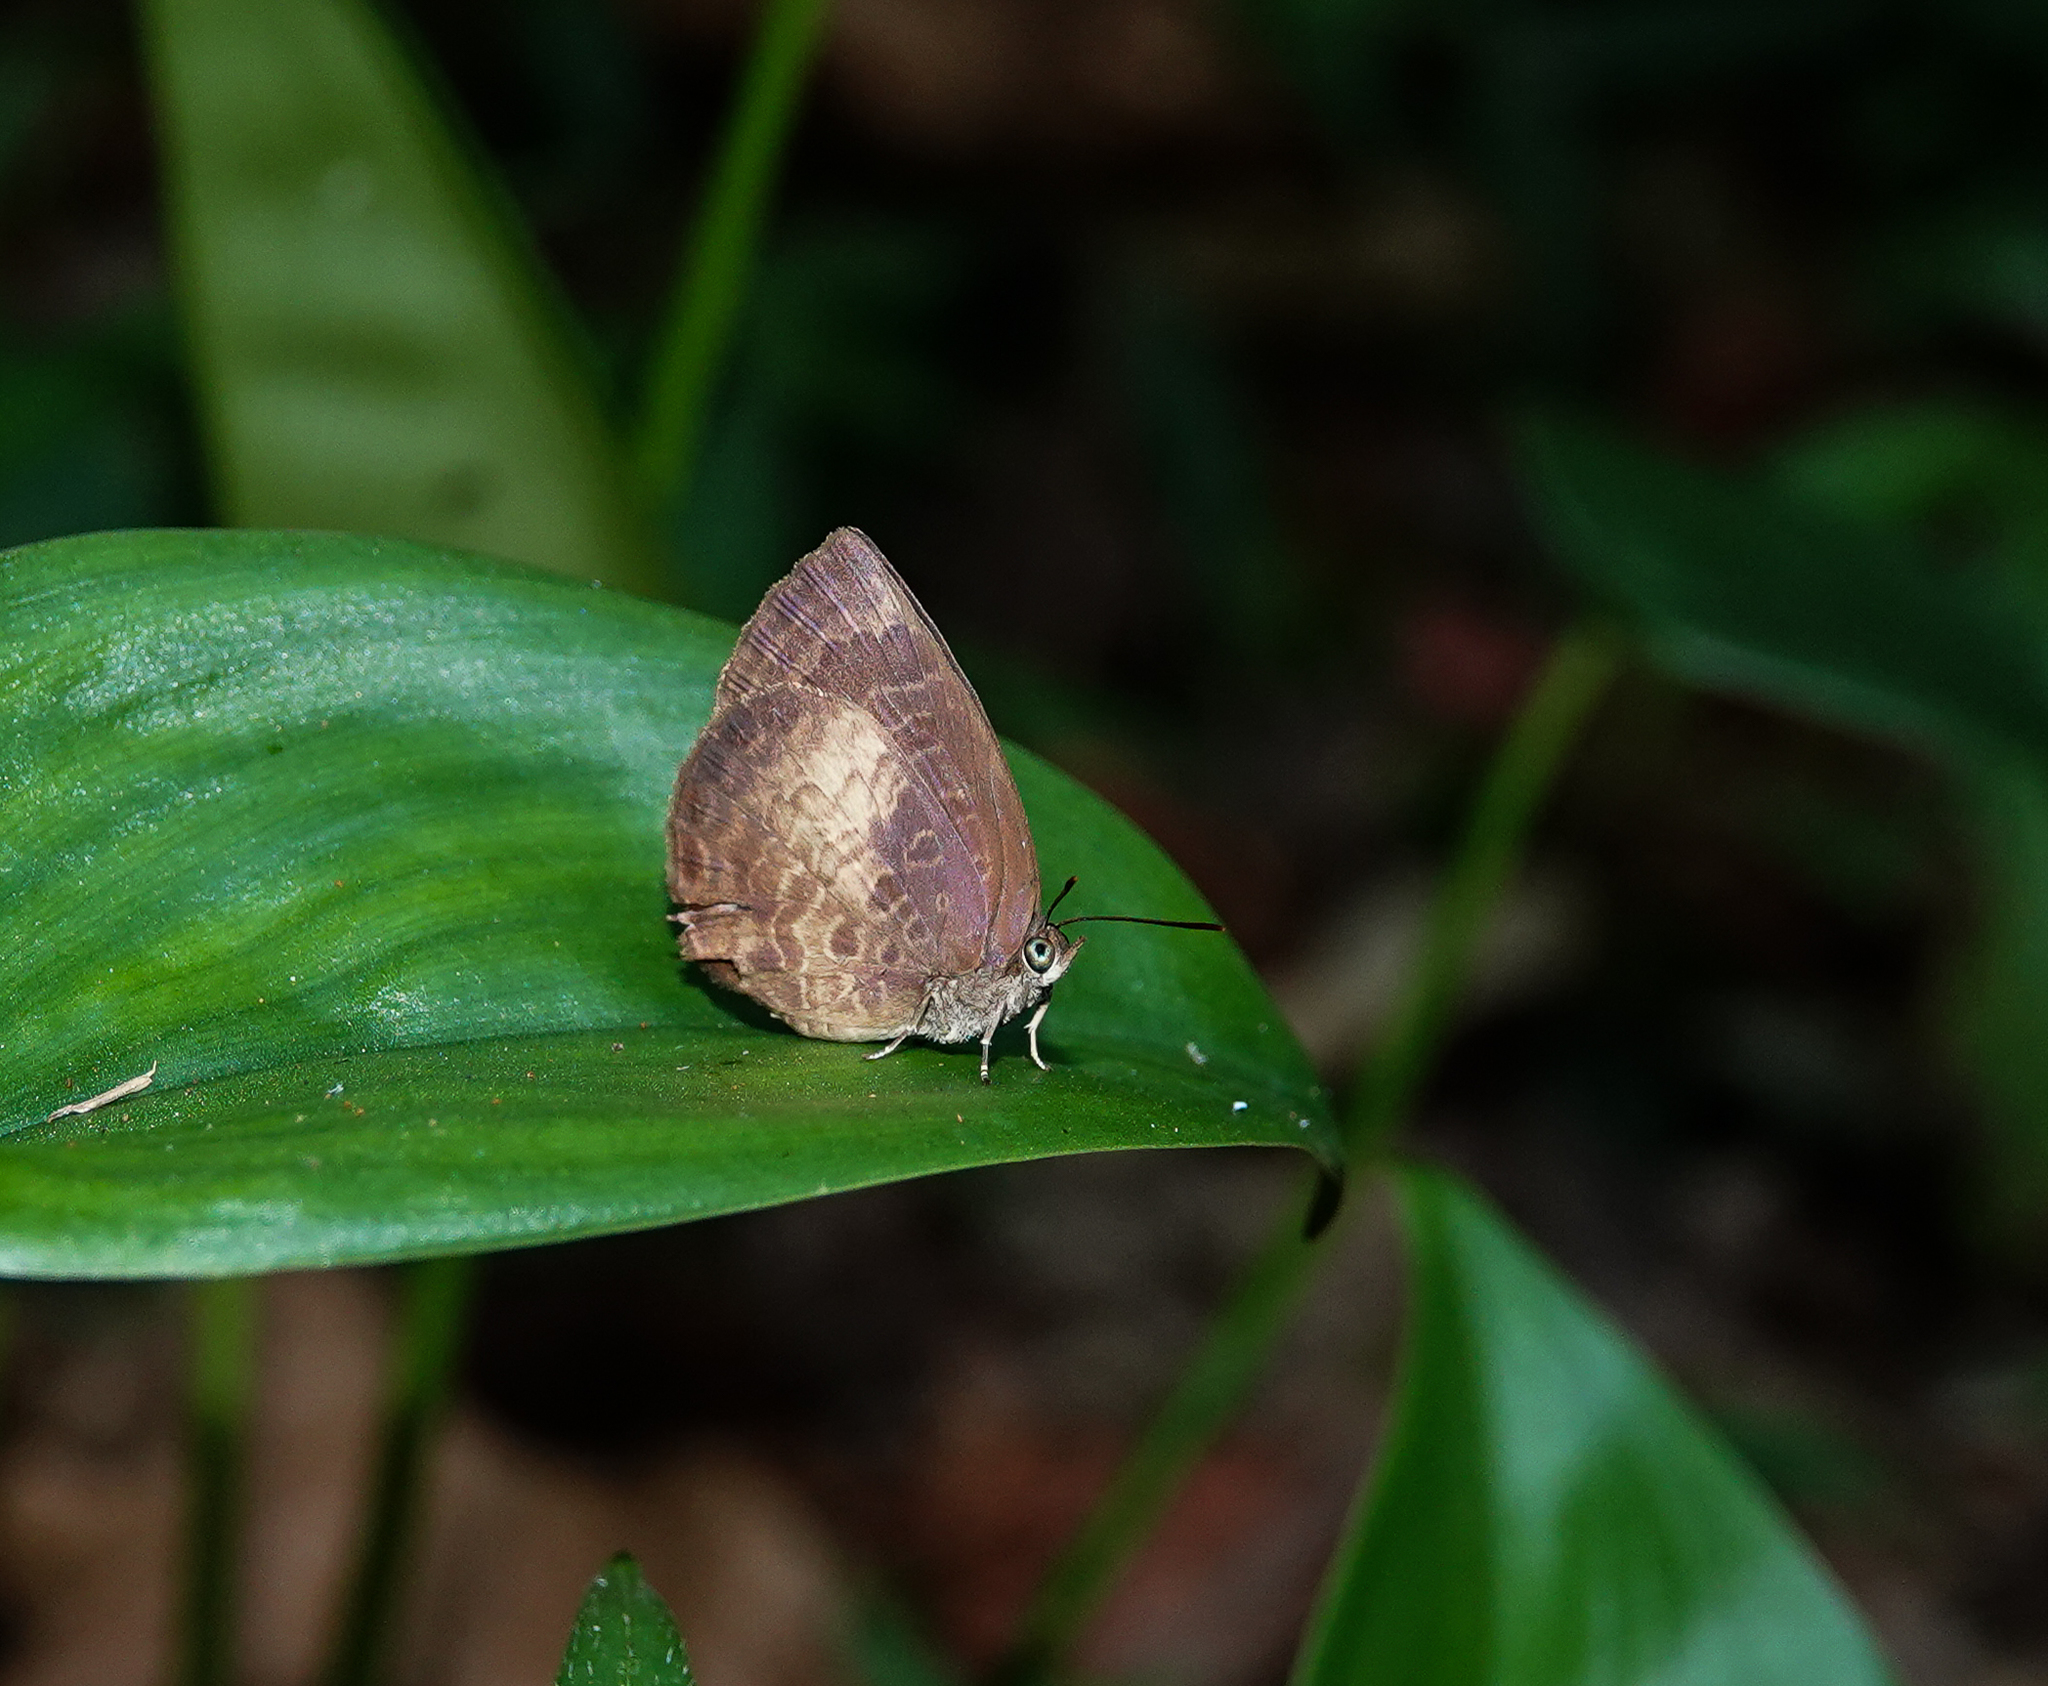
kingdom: Animalia
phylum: Arthropoda
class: Insecta
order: Lepidoptera
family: Lycaenidae
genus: Arhopala
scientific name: Arhopala perimuta
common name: Yellowdisc oakblue
